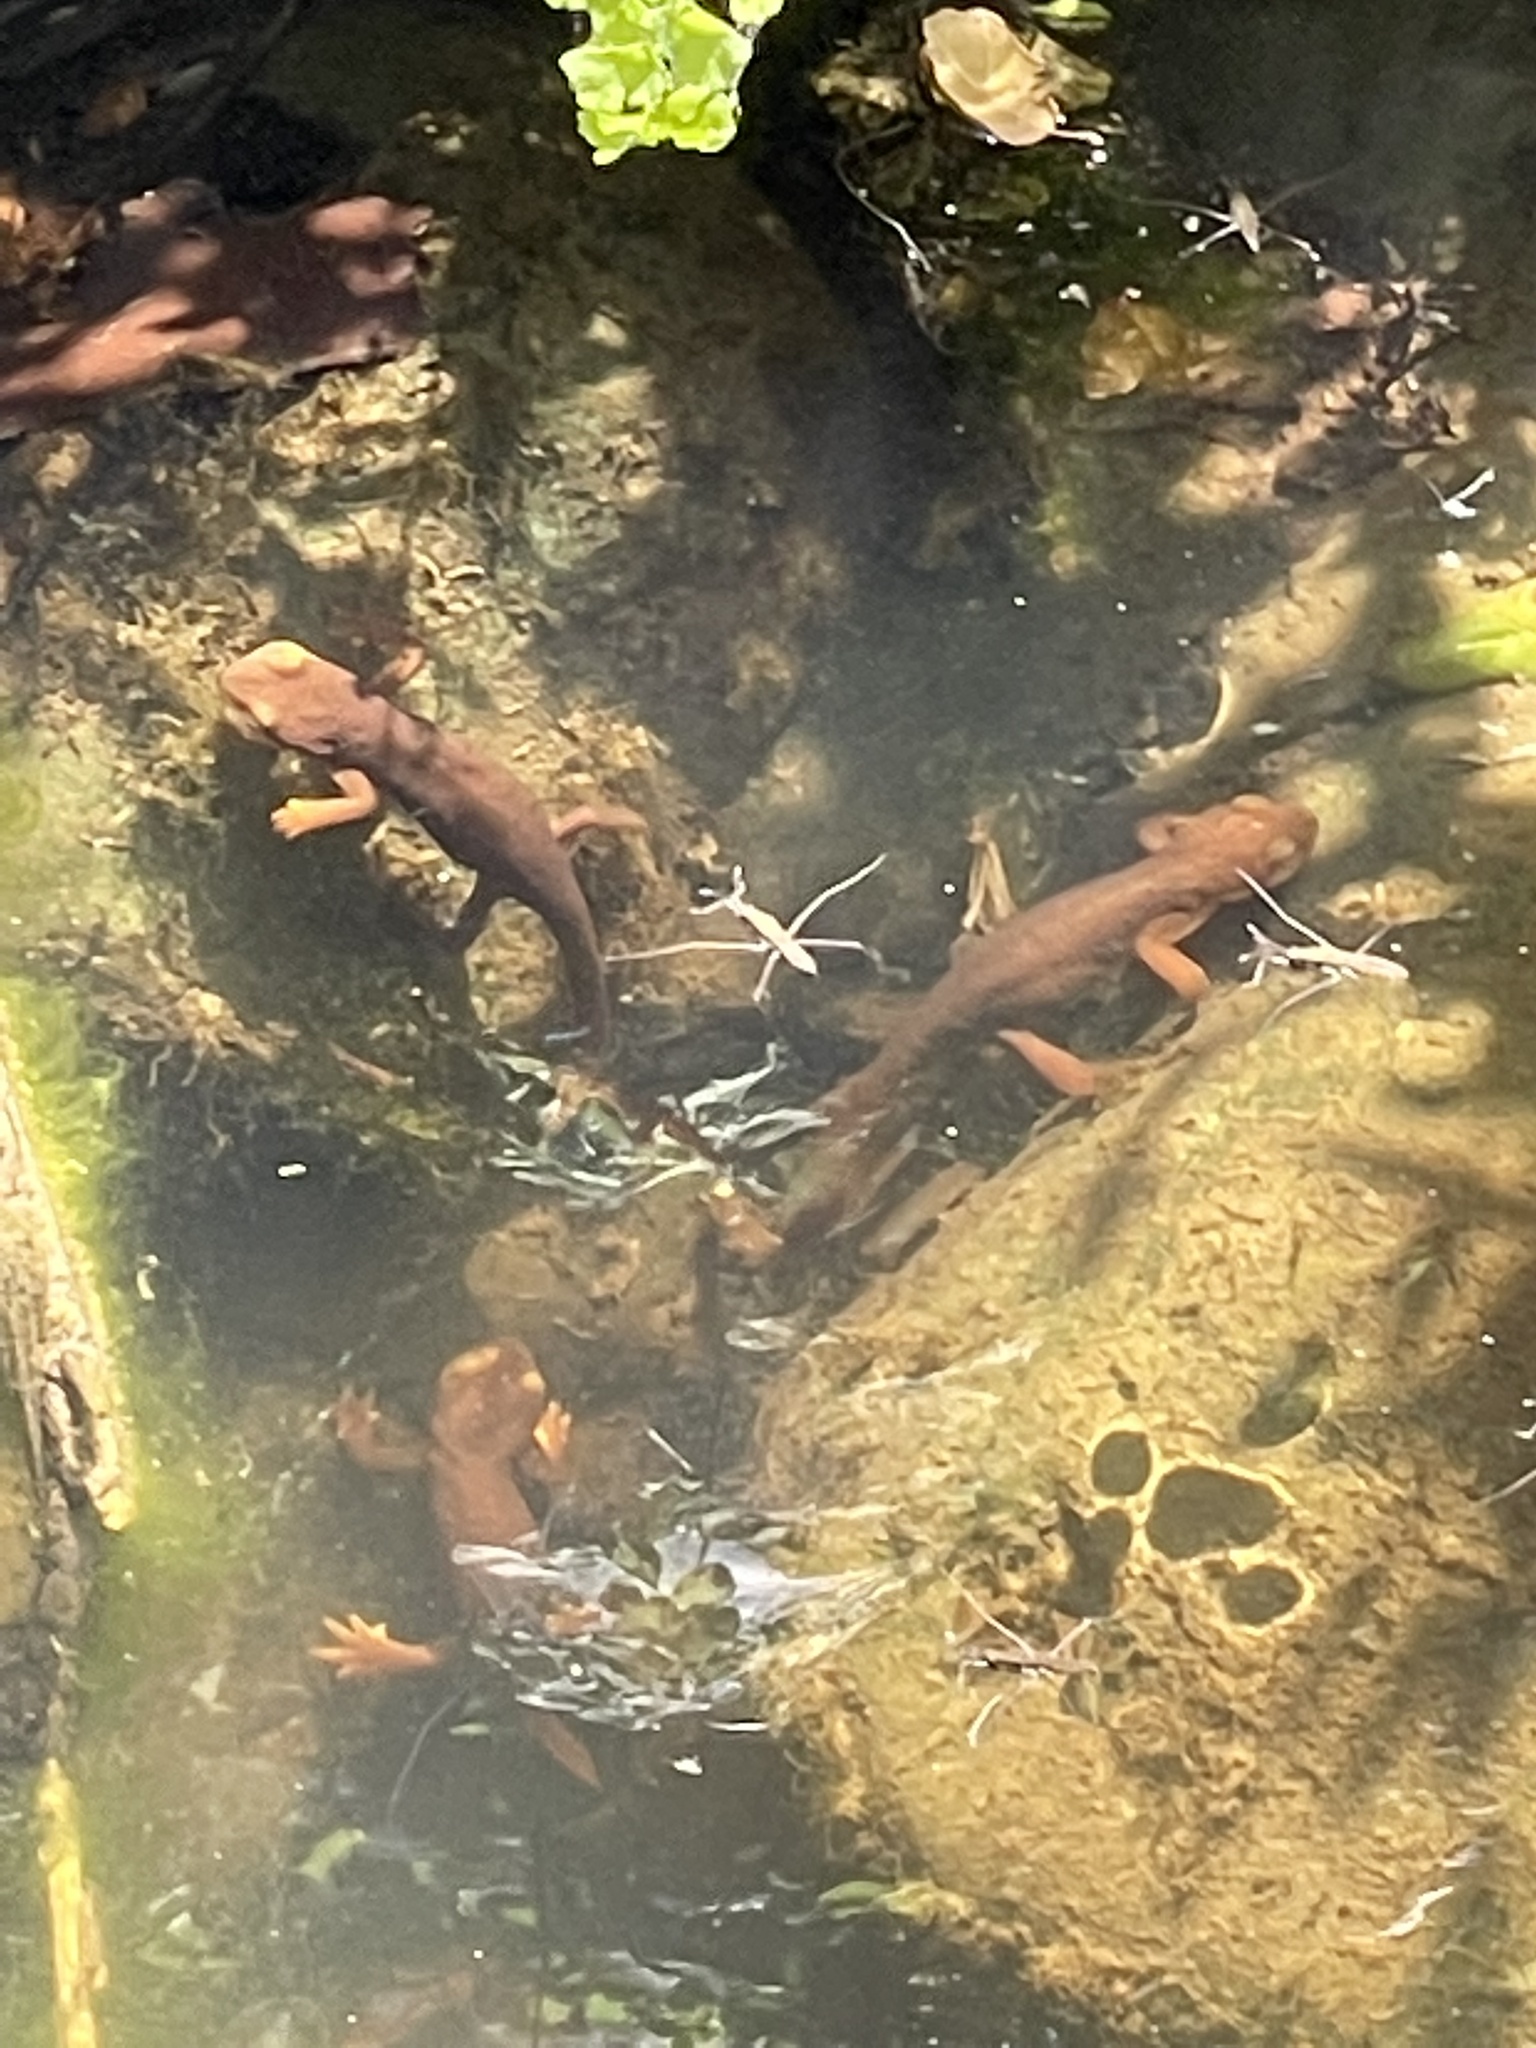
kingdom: Animalia
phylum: Chordata
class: Amphibia
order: Caudata
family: Salamandridae
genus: Taricha
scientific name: Taricha torosa
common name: California newt
